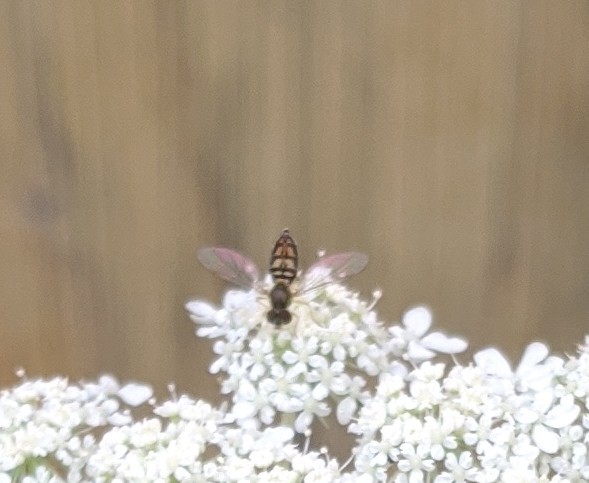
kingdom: Animalia
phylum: Arthropoda
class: Insecta
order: Diptera
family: Syrphidae
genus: Toxomerus
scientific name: Toxomerus marginatus
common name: Syrphid fly
